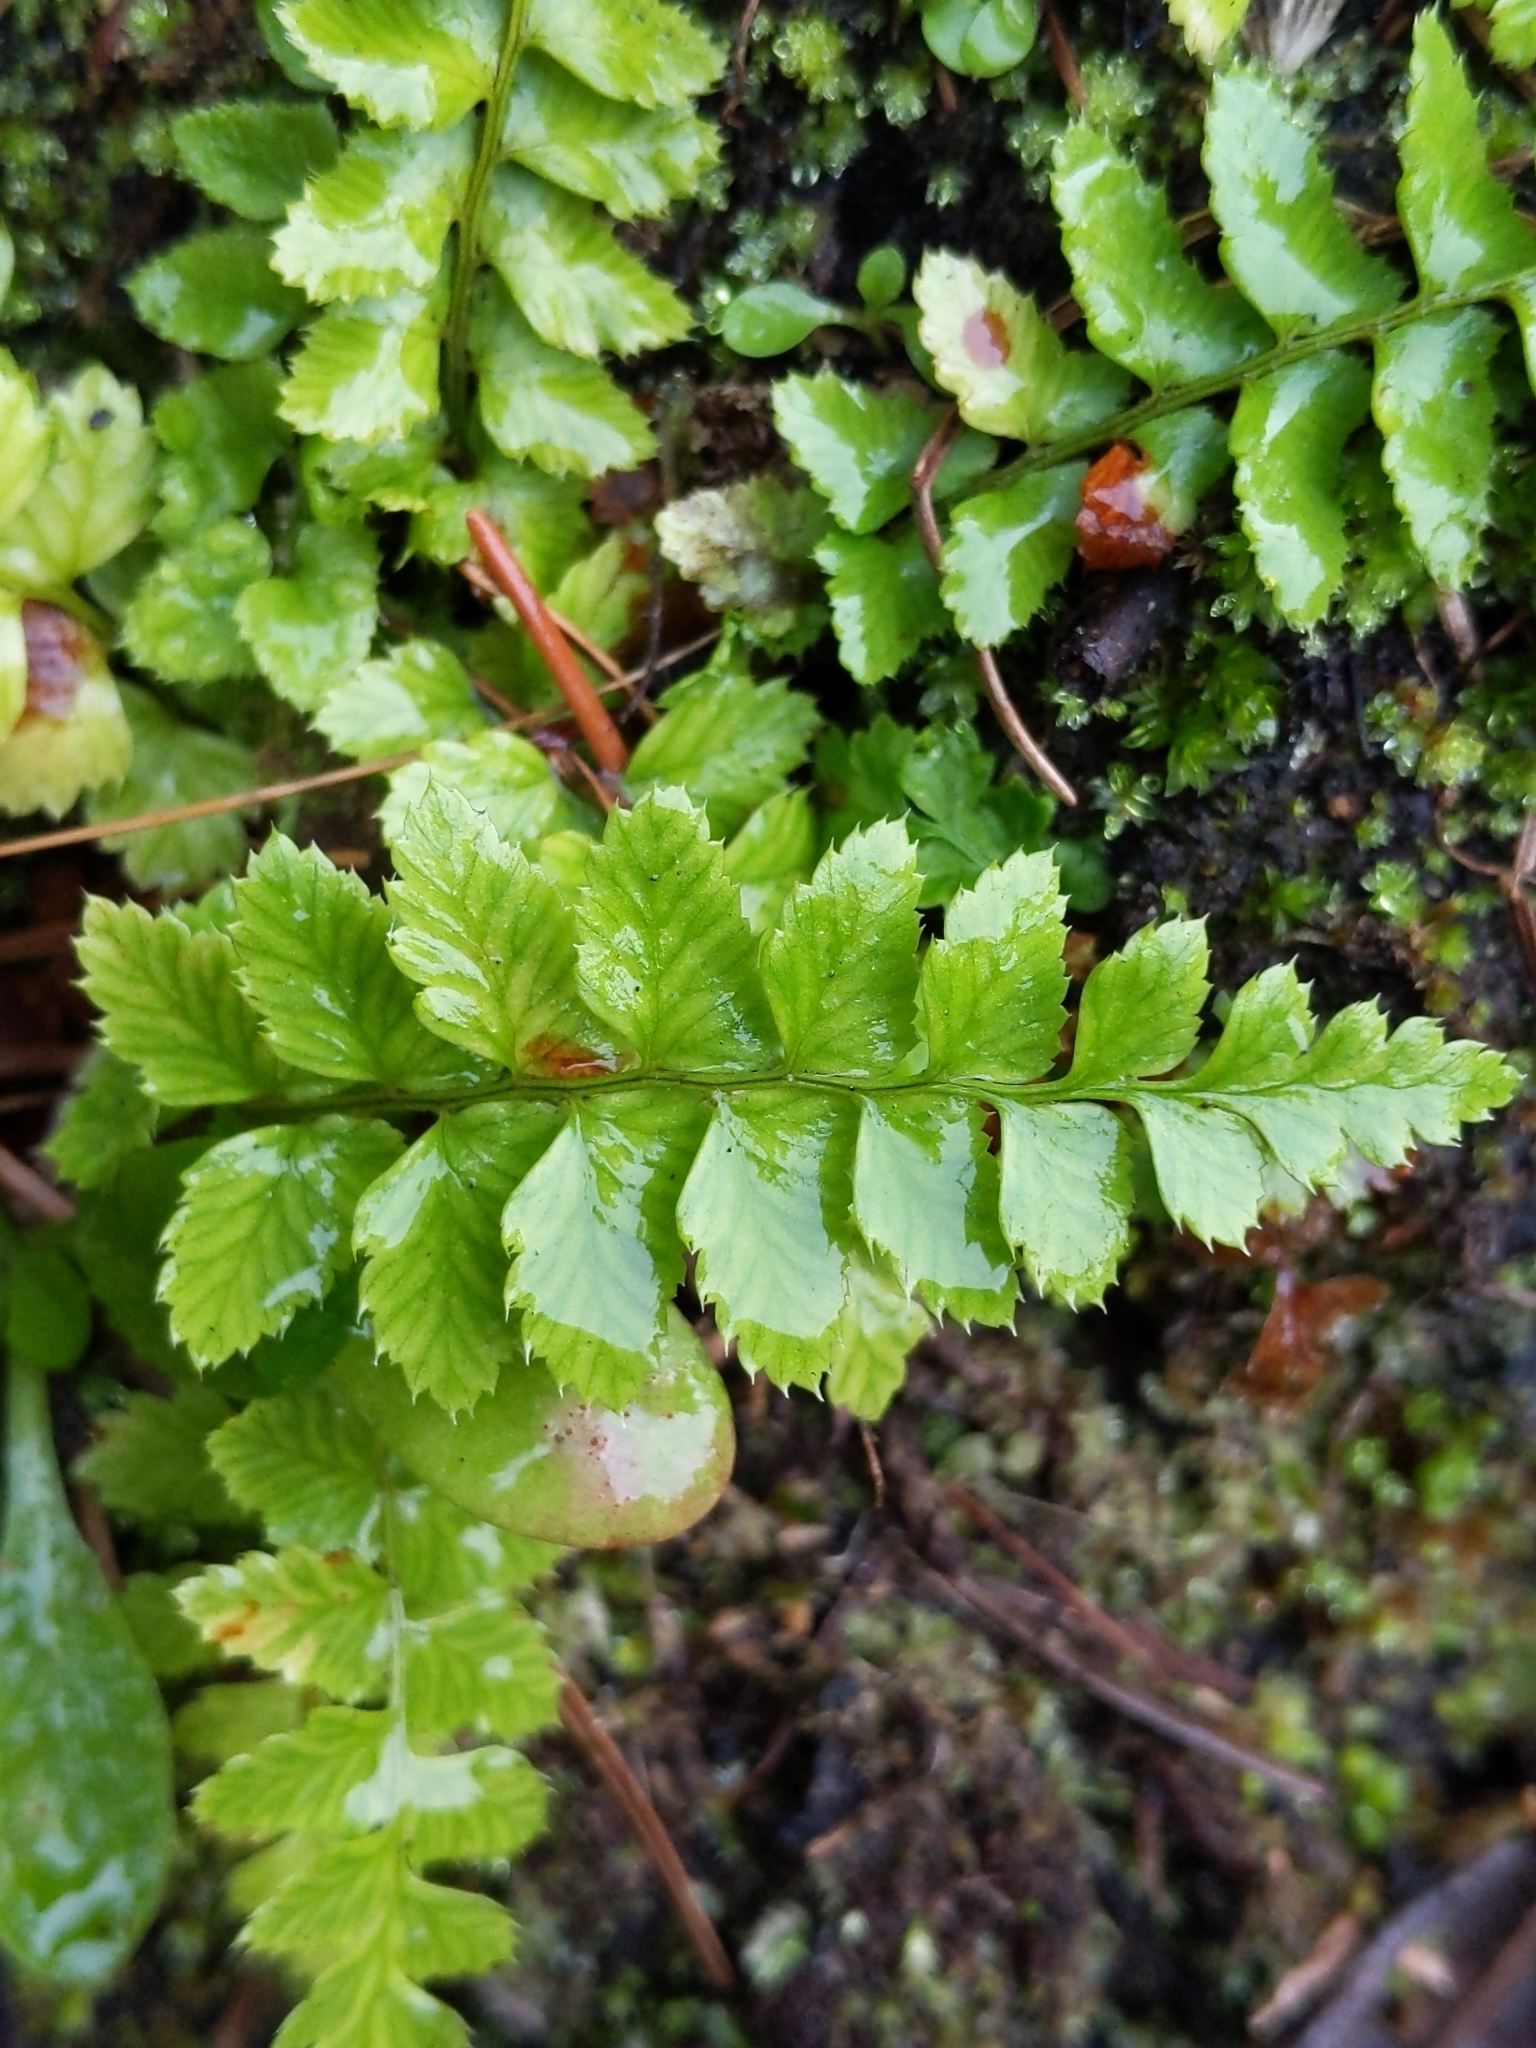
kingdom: Plantae
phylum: Tracheophyta
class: Polypodiopsida
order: Polypodiales
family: Dryopteridaceae
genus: Polystichum
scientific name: Polystichum munitum
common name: Western sword-fern
